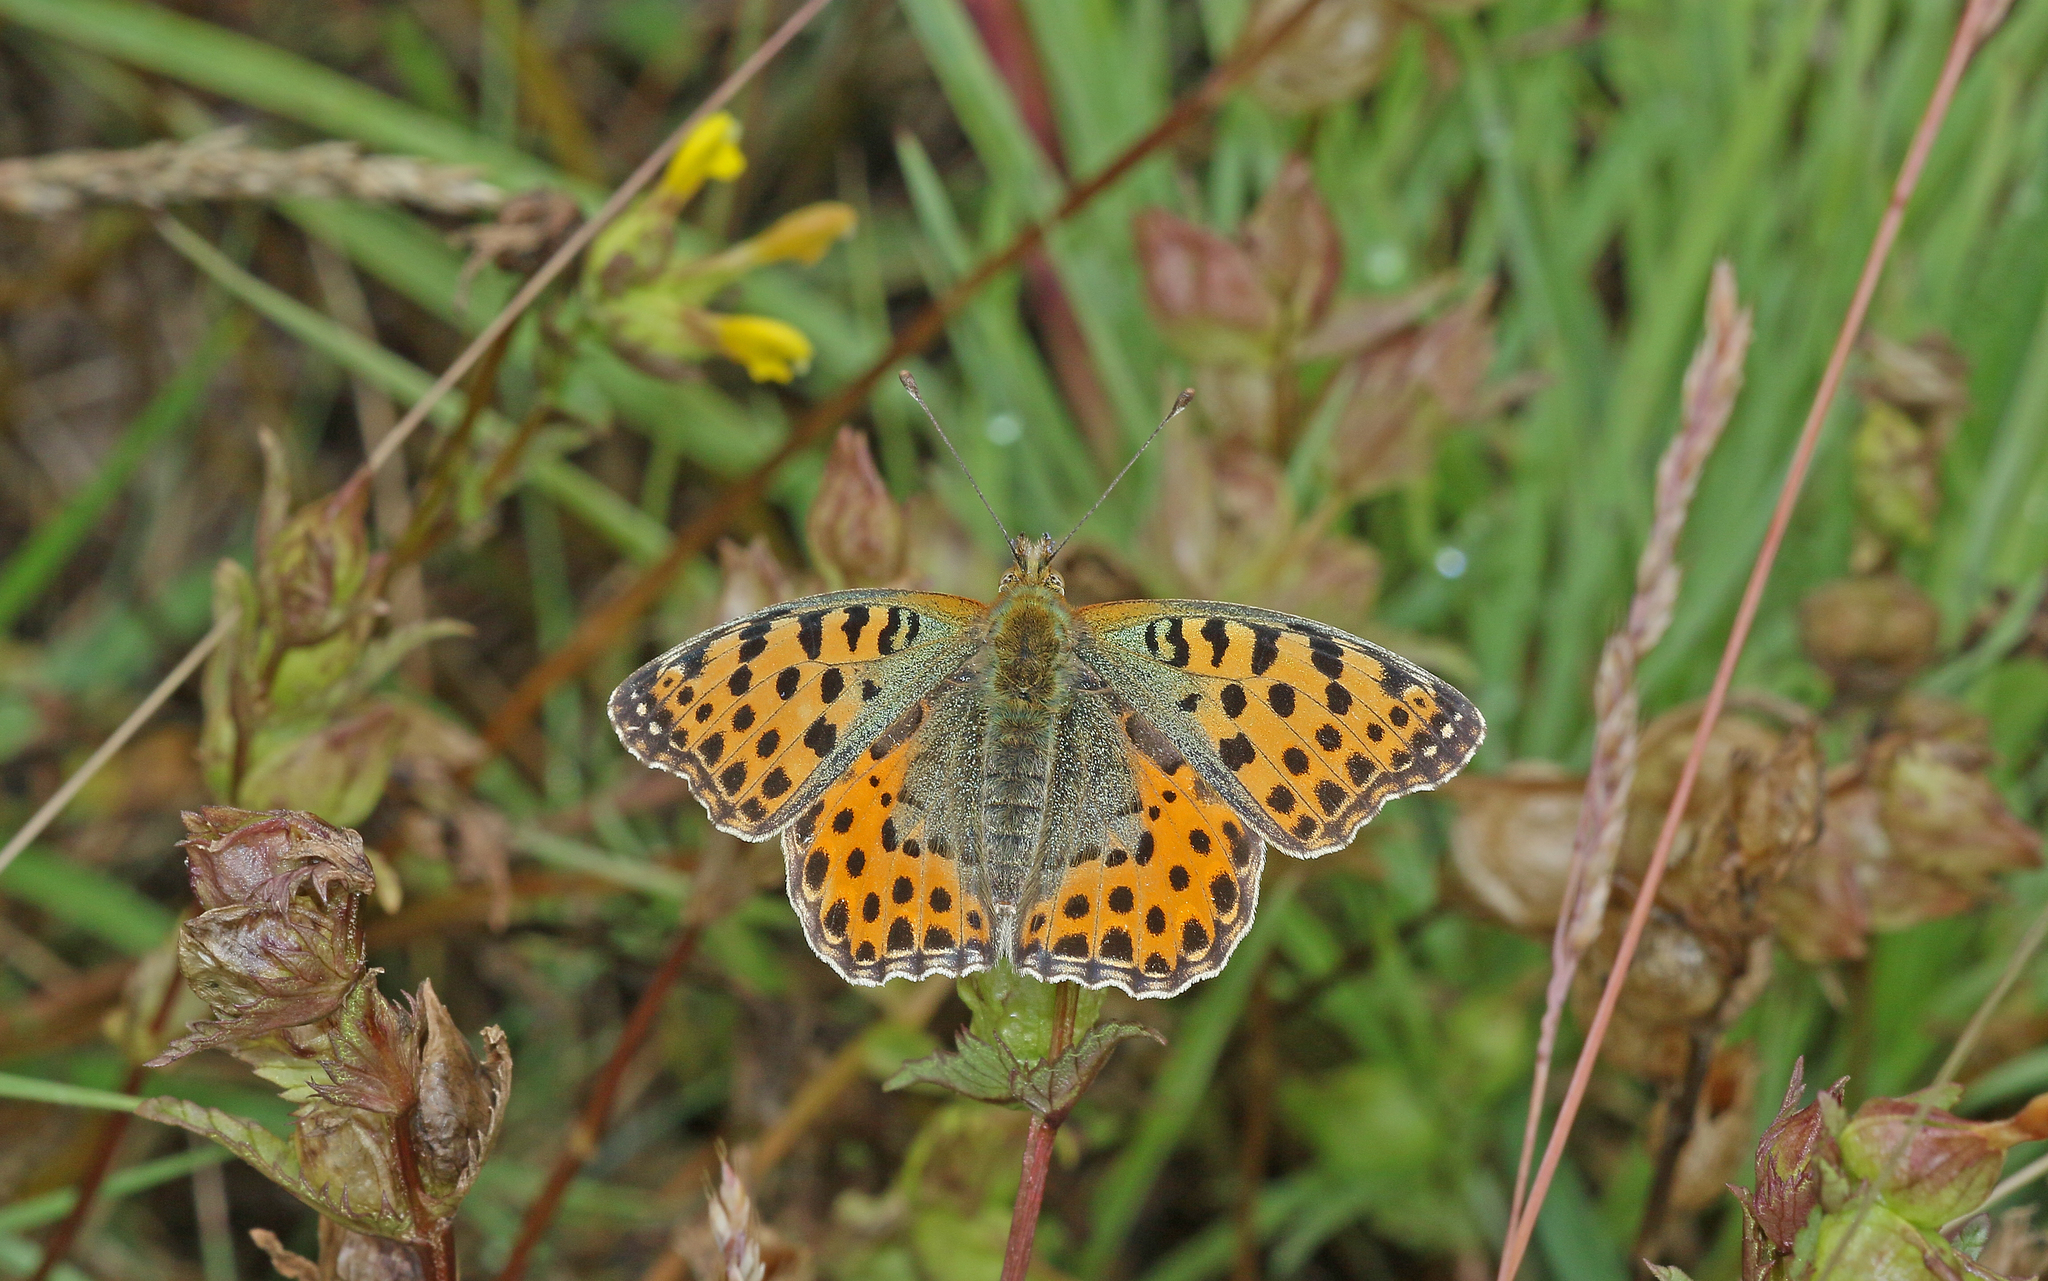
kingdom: Animalia
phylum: Arthropoda
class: Insecta
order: Lepidoptera
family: Nymphalidae
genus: Issoria
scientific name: Issoria lathonia
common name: Queen of spain fritillary
